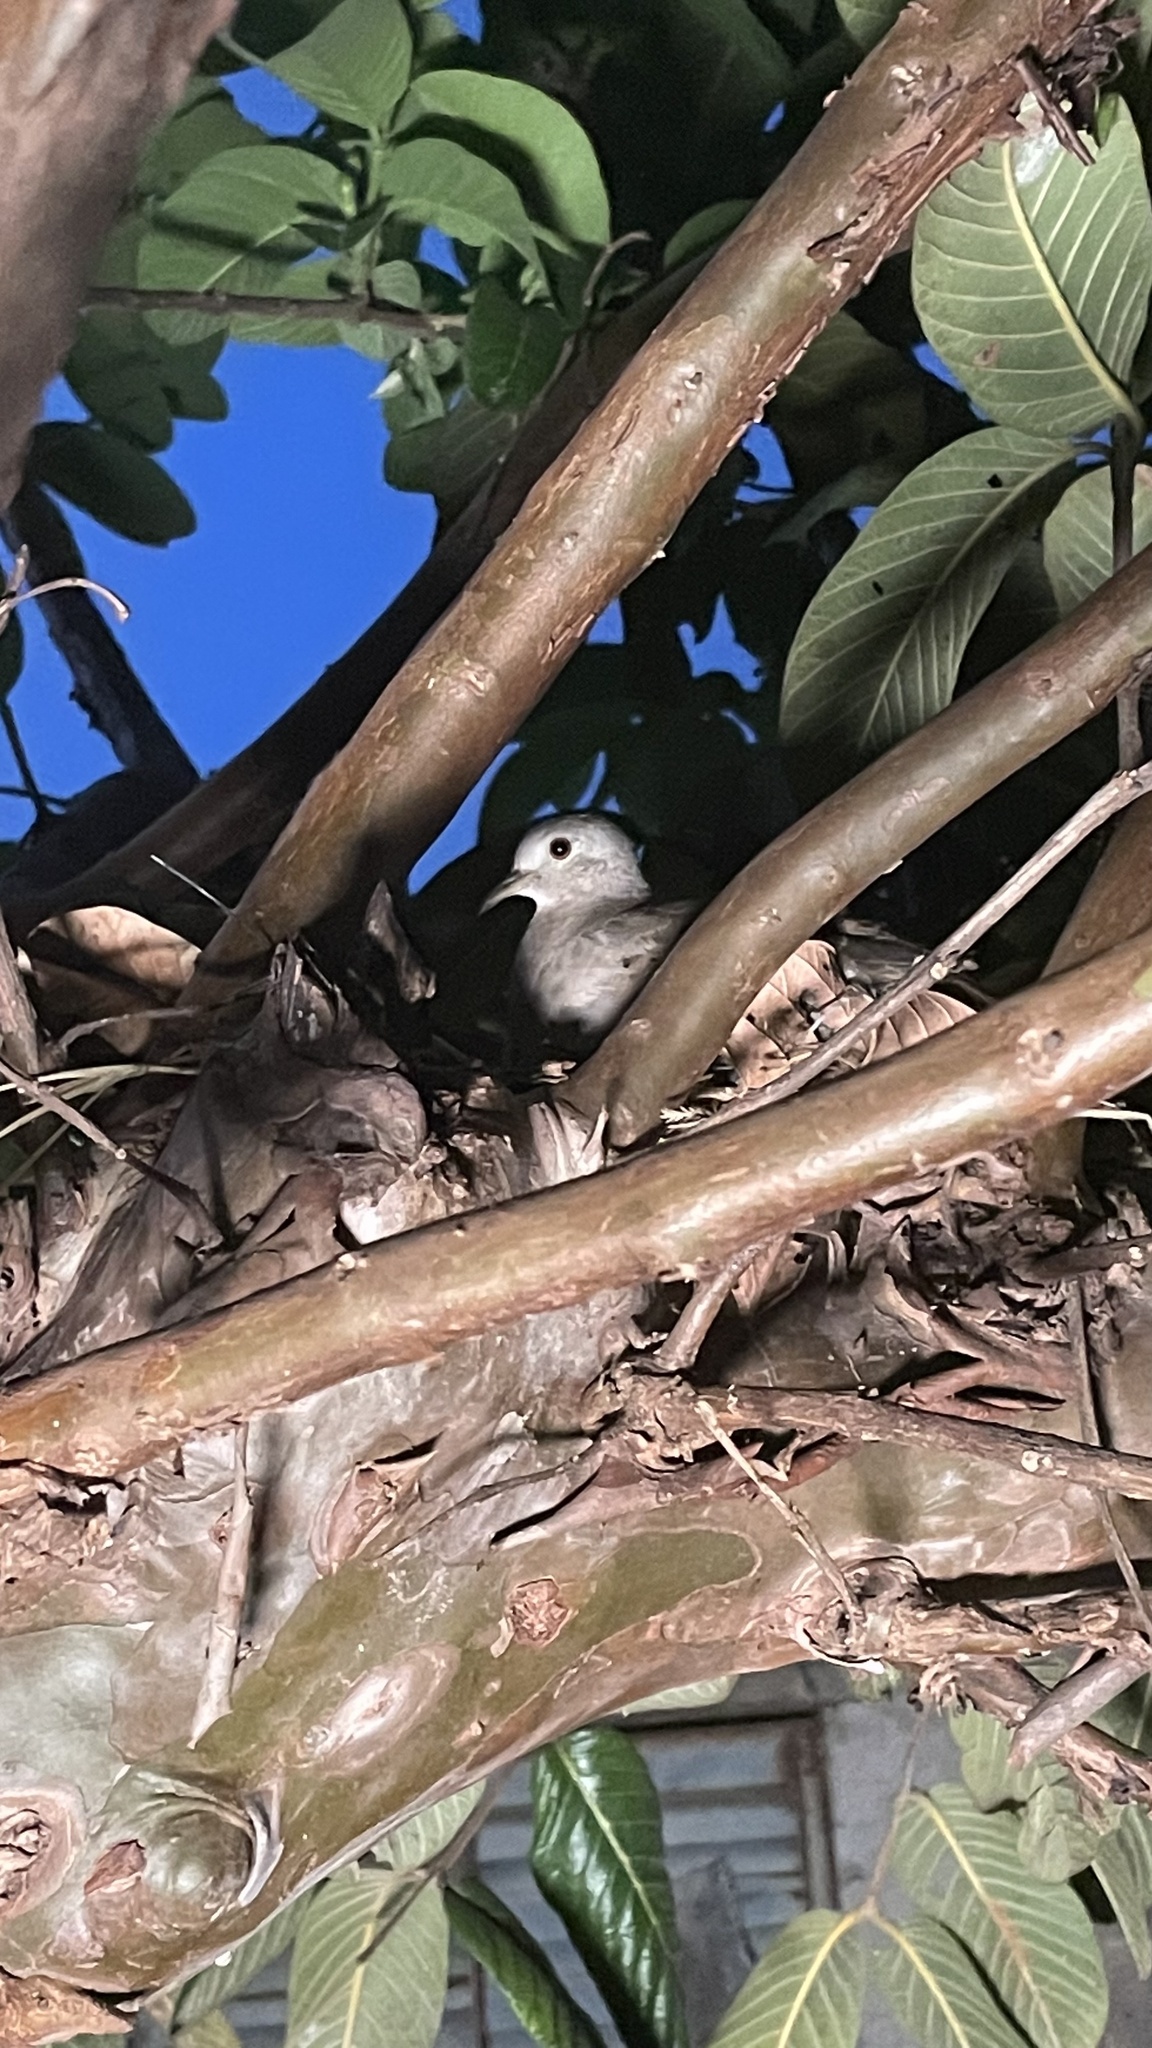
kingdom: Animalia
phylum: Chordata
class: Aves
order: Columbiformes
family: Columbidae
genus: Columbina
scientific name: Columbina talpacoti
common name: Ruddy ground dove
